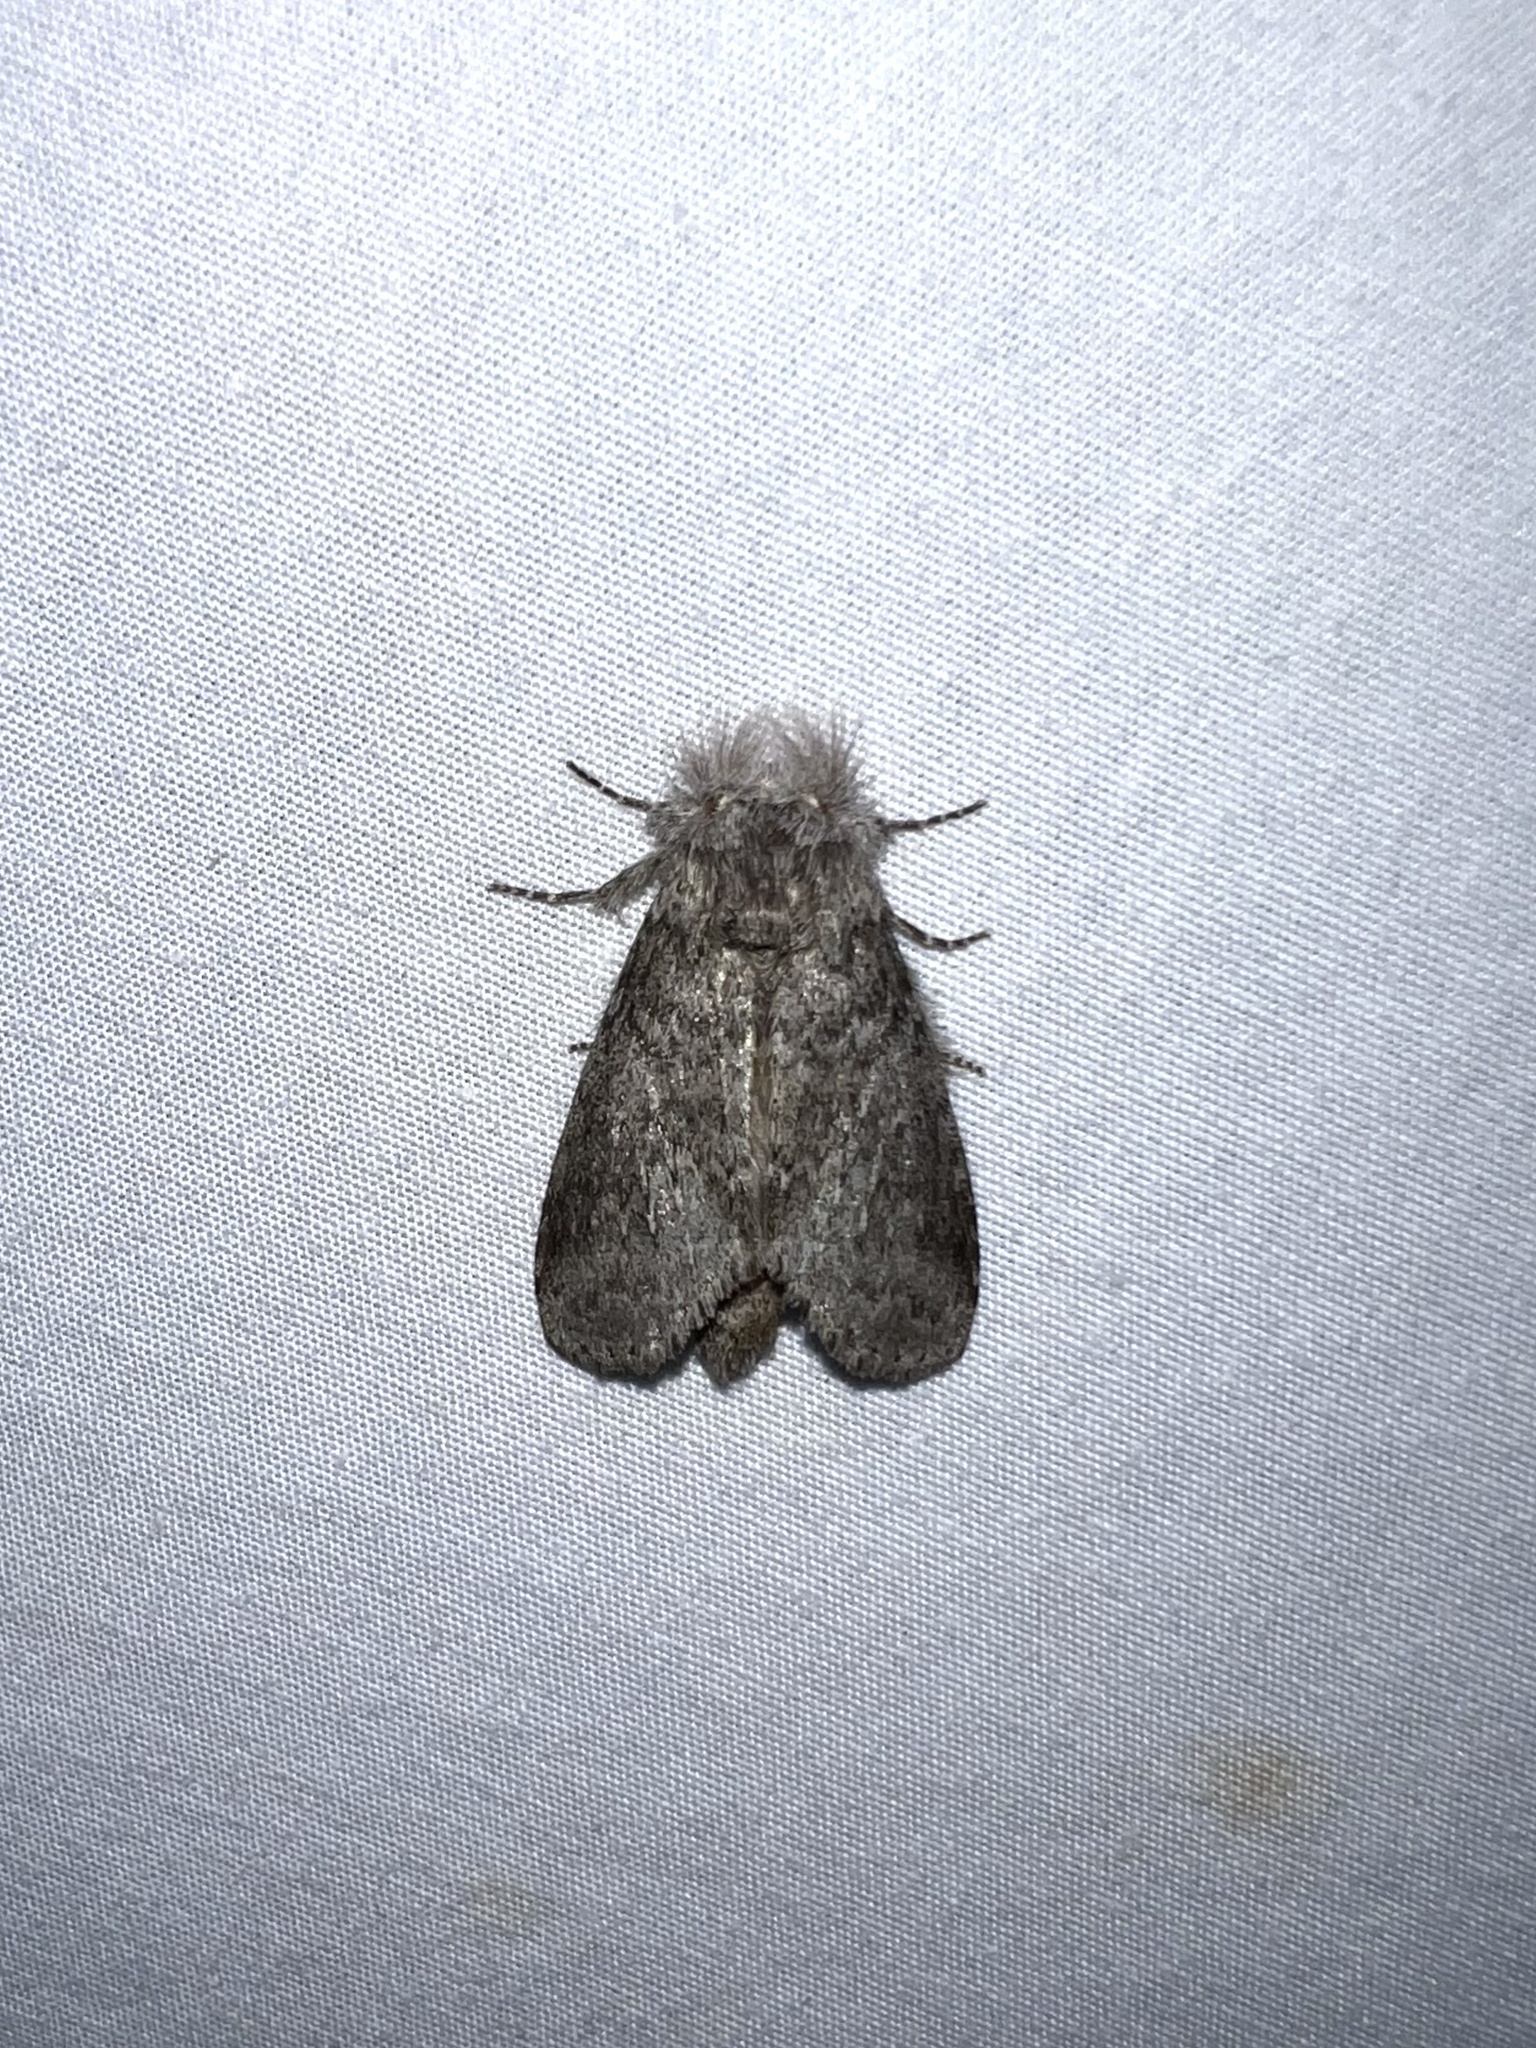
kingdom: Animalia
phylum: Arthropoda
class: Insecta
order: Lepidoptera
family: Notodontidae
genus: Lochmaeus
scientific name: Lochmaeus manteo
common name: Variable oakleaf caterpillar moth
